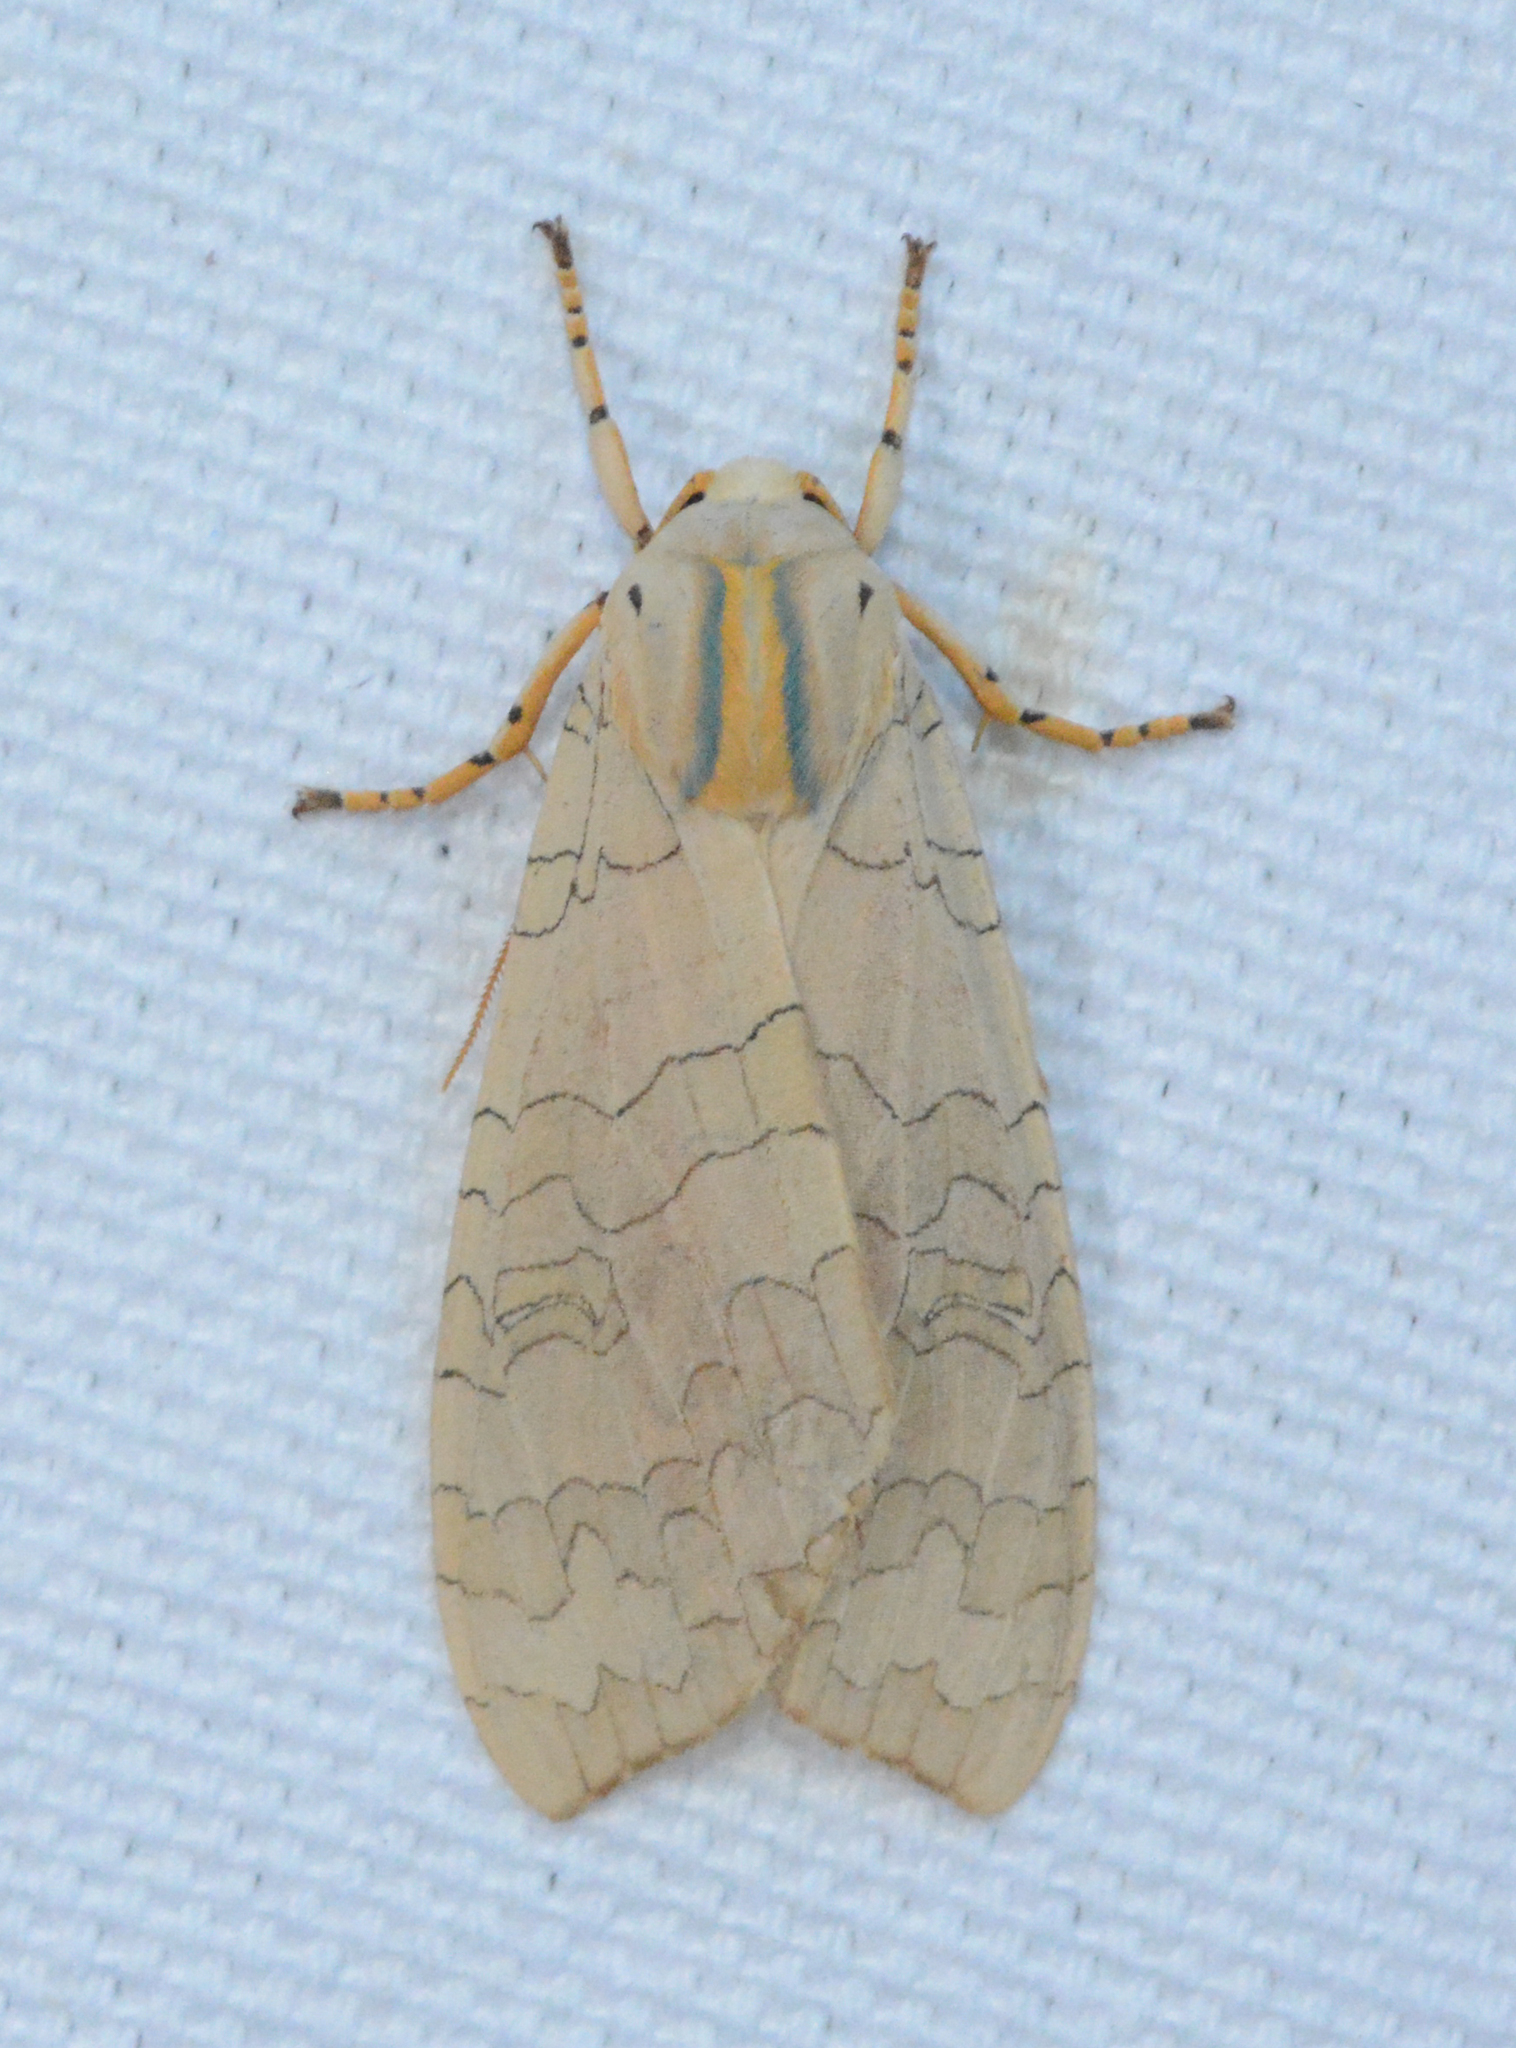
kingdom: Animalia
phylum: Arthropoda
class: Insecta
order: Lepidoptera
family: Erebidae
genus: Halysidota
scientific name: Halysidota
